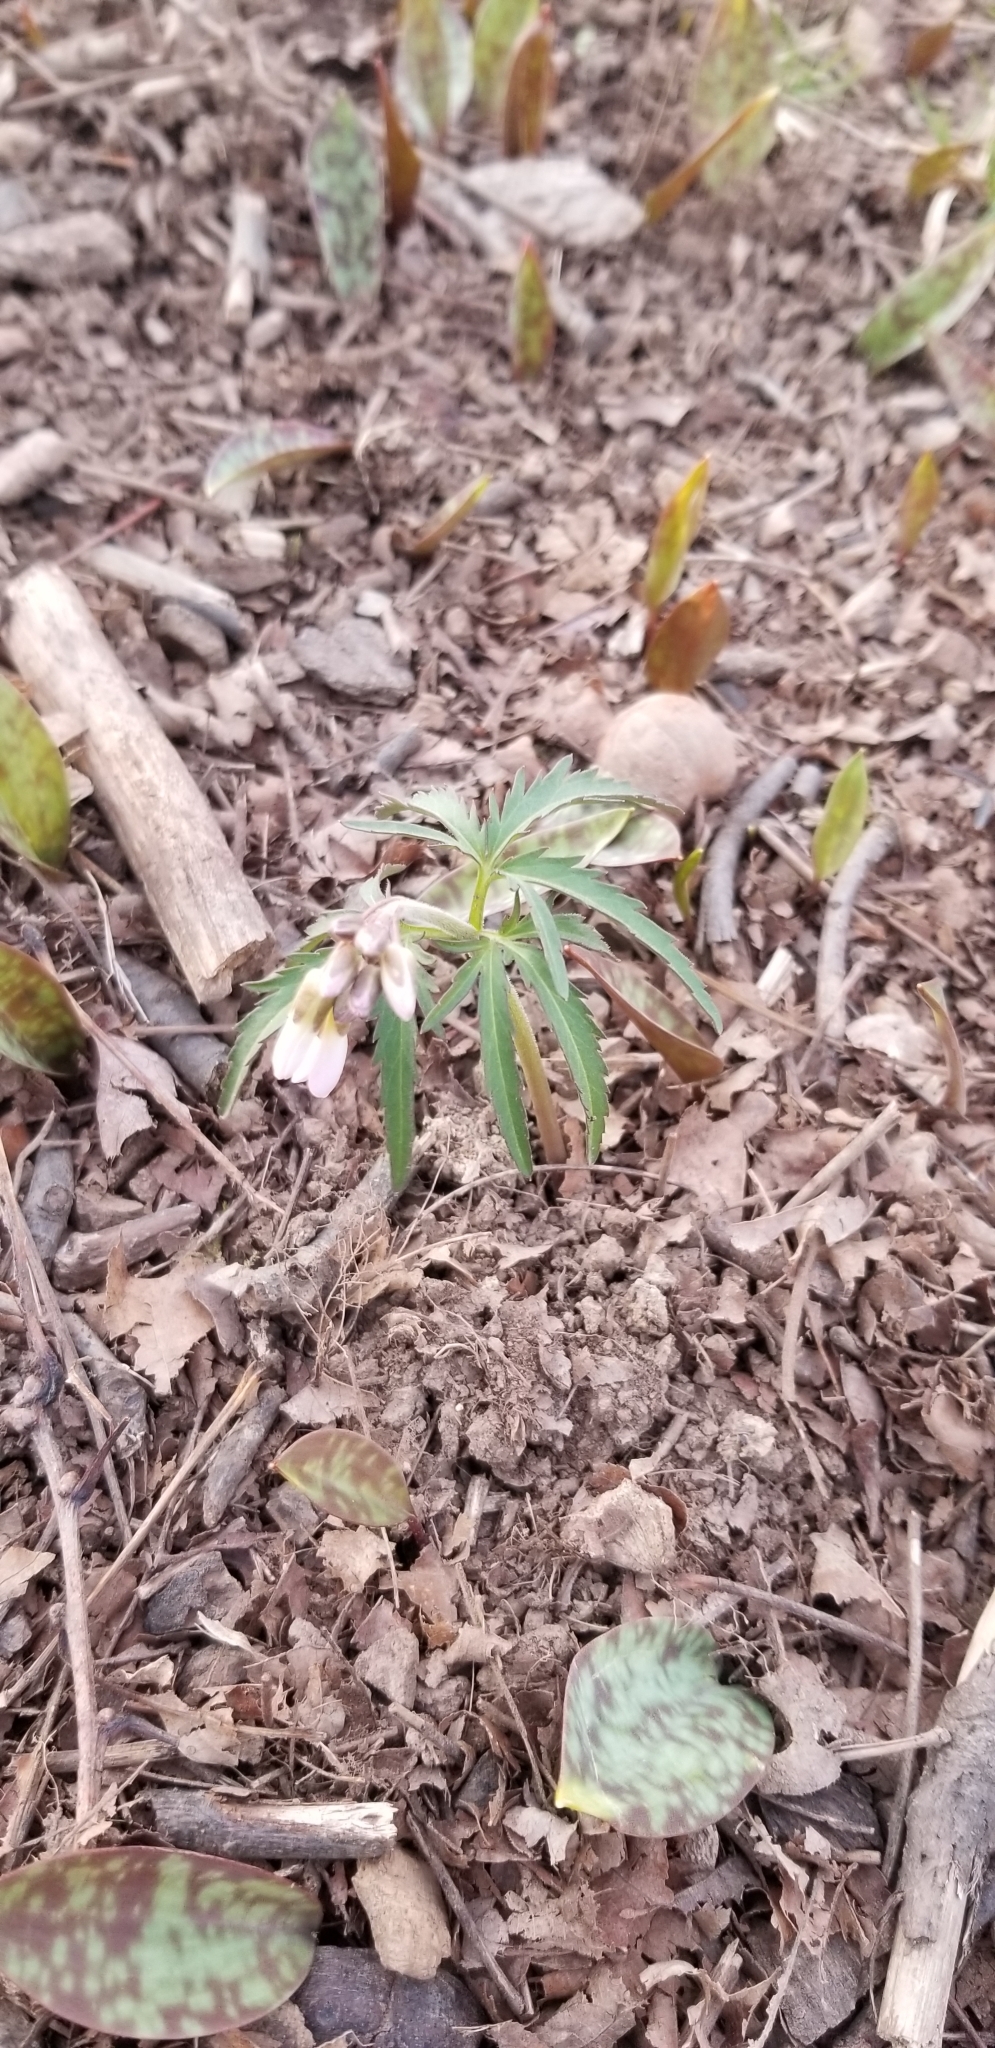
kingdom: Plantae
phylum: Tracheophyta
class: Magnoliopsida
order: Brassicales
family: Brassicaceae
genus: Cardamine
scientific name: Cardamine concatenata
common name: Cut-leaf toothcup
